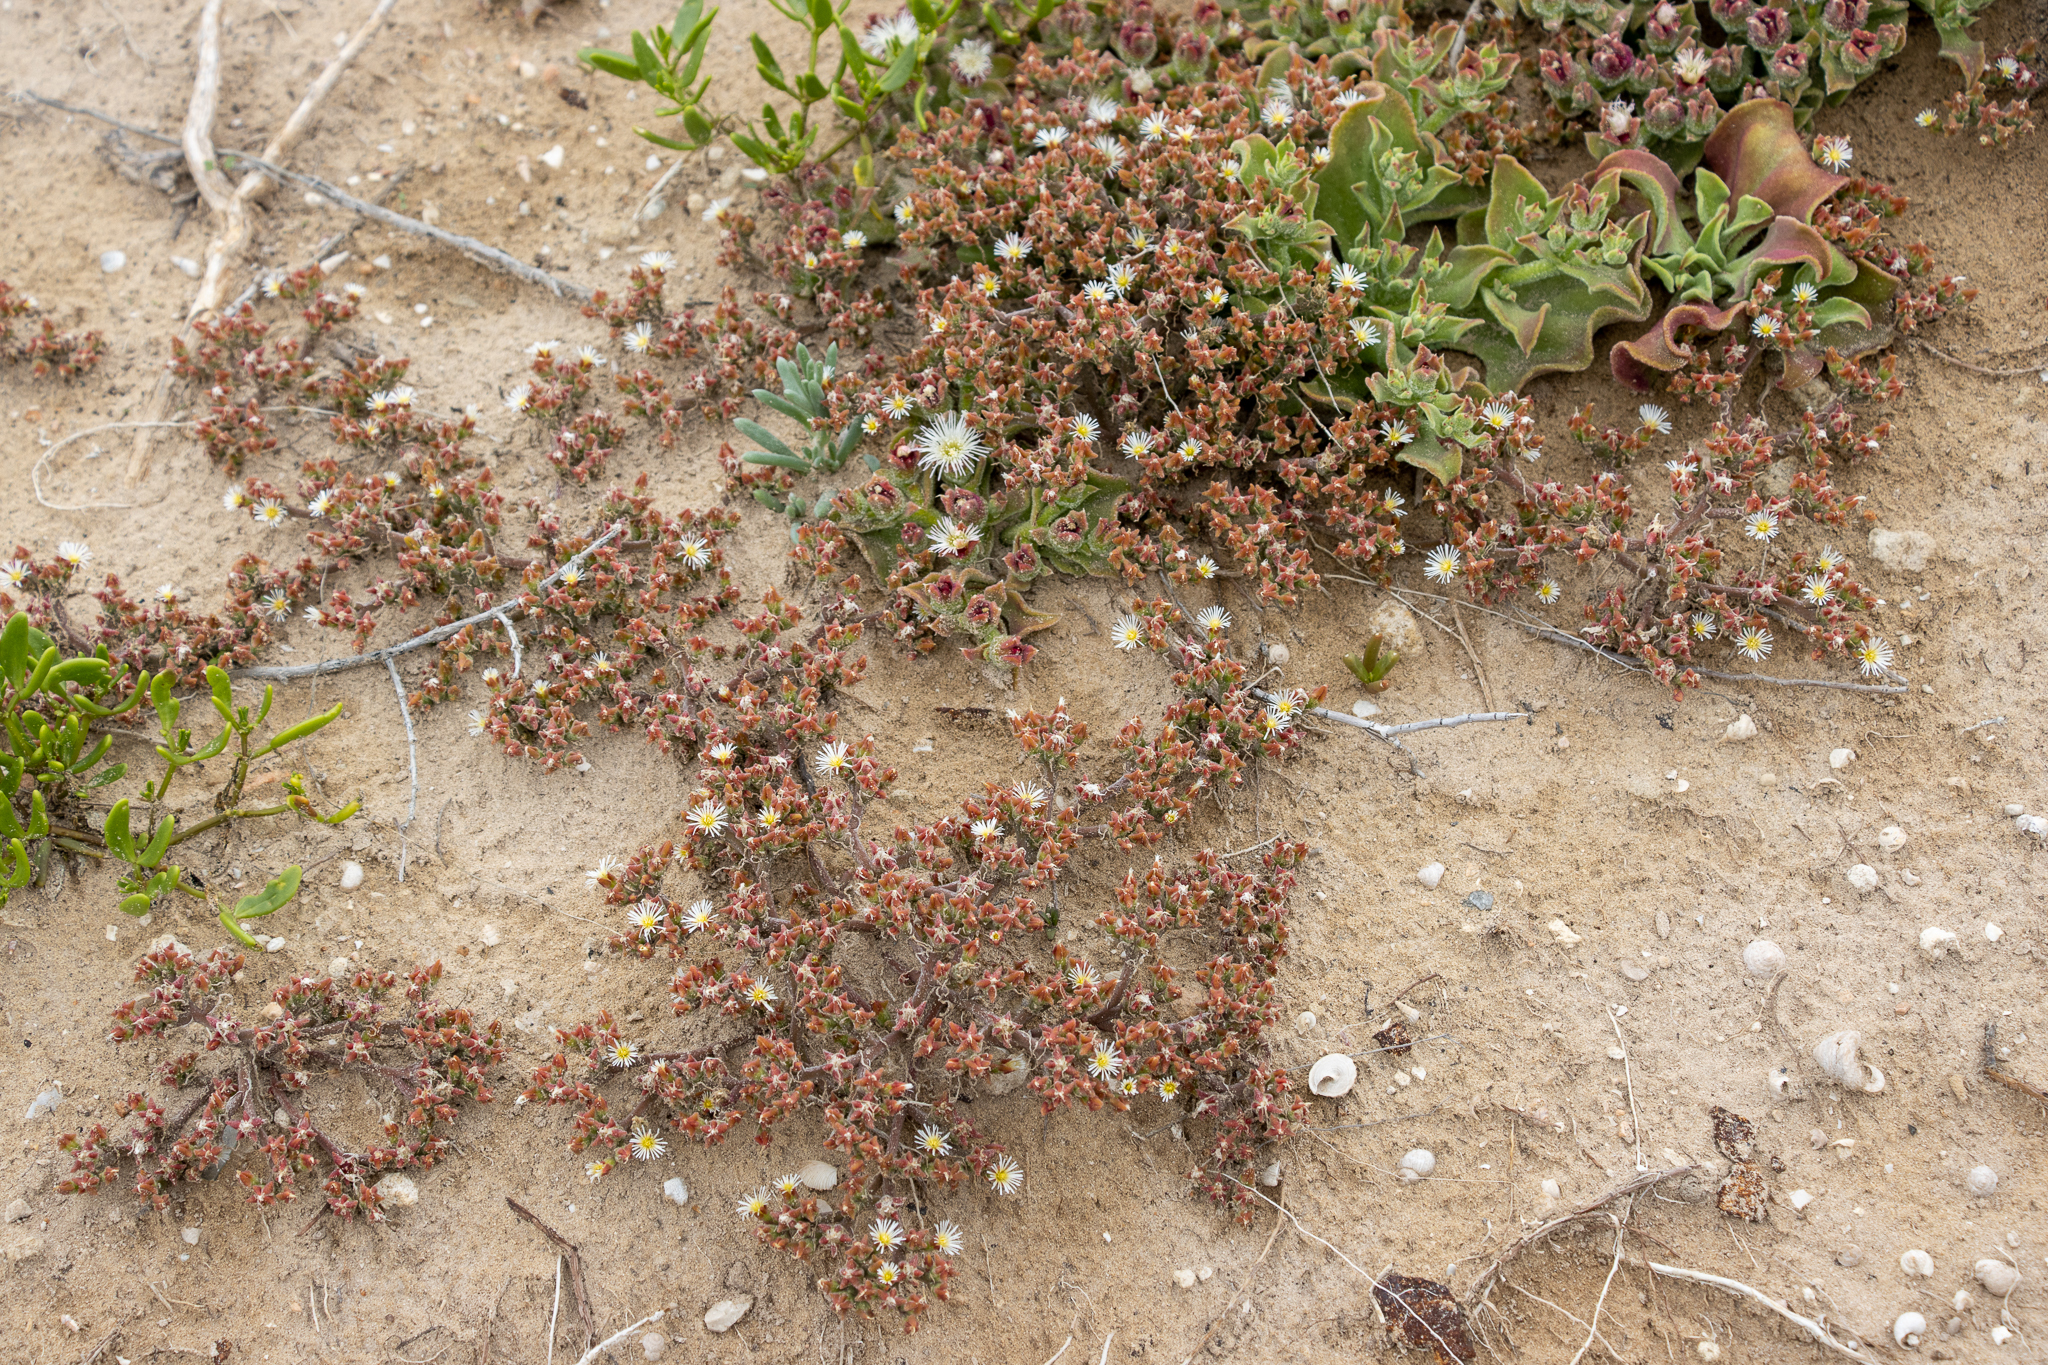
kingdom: Plantae
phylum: Tracheophyta
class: Magnoliopsida
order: Caryophyllales
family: Aizoaceae
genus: Mesembryanthemum
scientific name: Mesembryanthemum nodiflorum
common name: Slenderleaf iceplant
